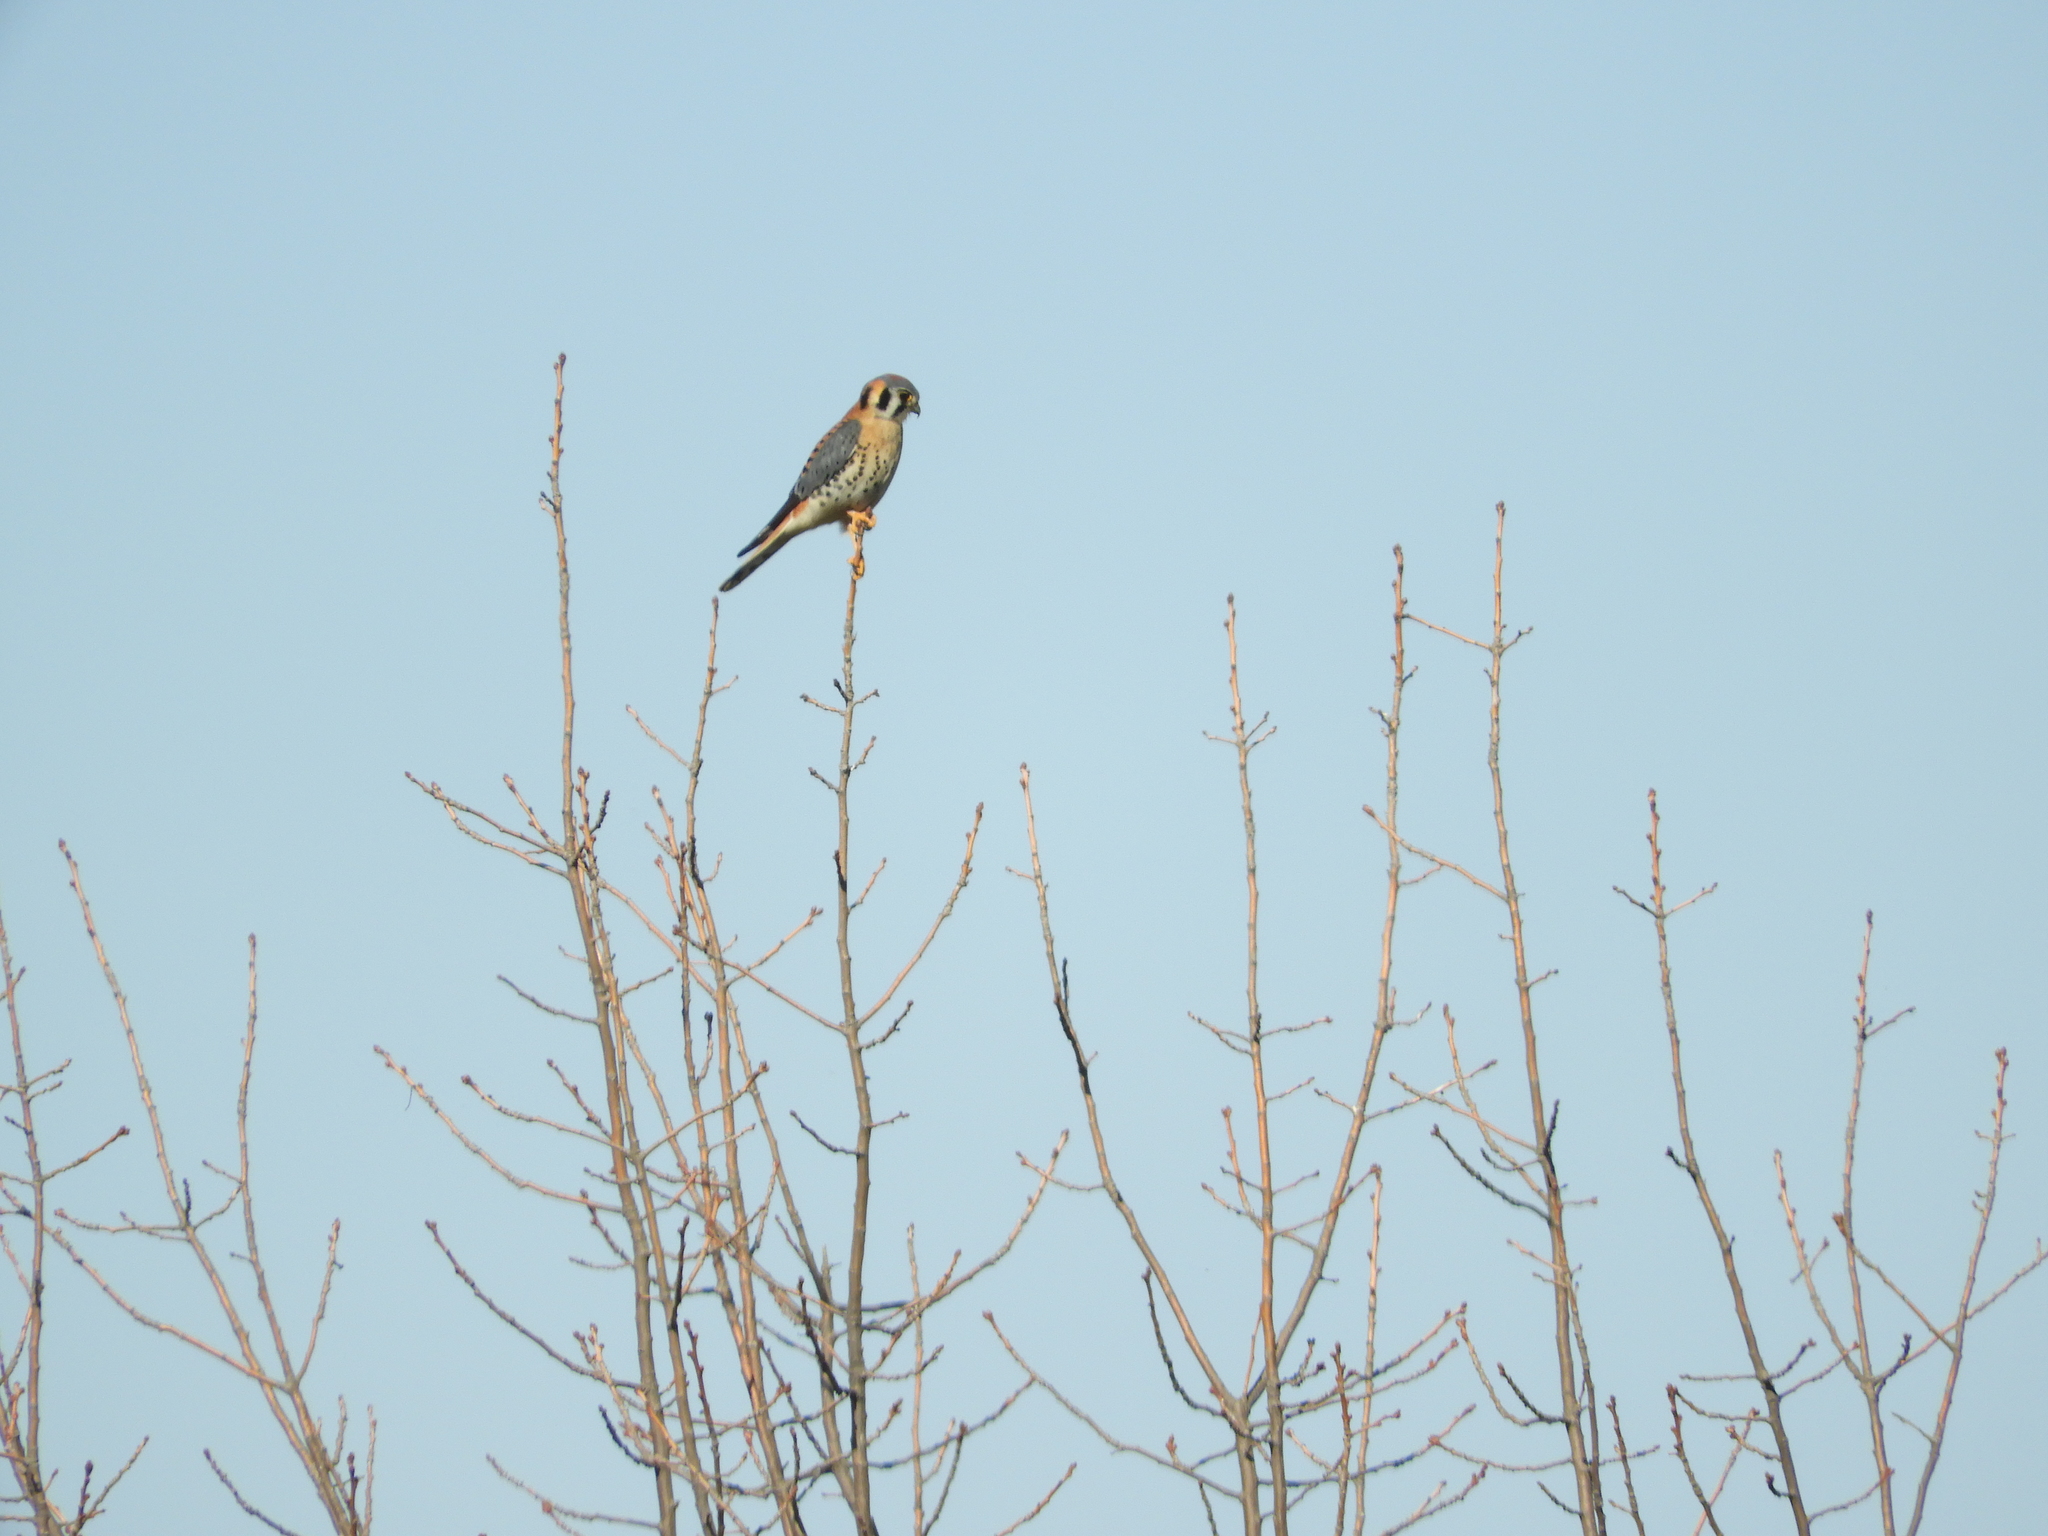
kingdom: Animalia
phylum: Chordata
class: Aves
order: Falconiformes
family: Falconidae
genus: Falco
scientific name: Falco sparverius
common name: American kestrel
